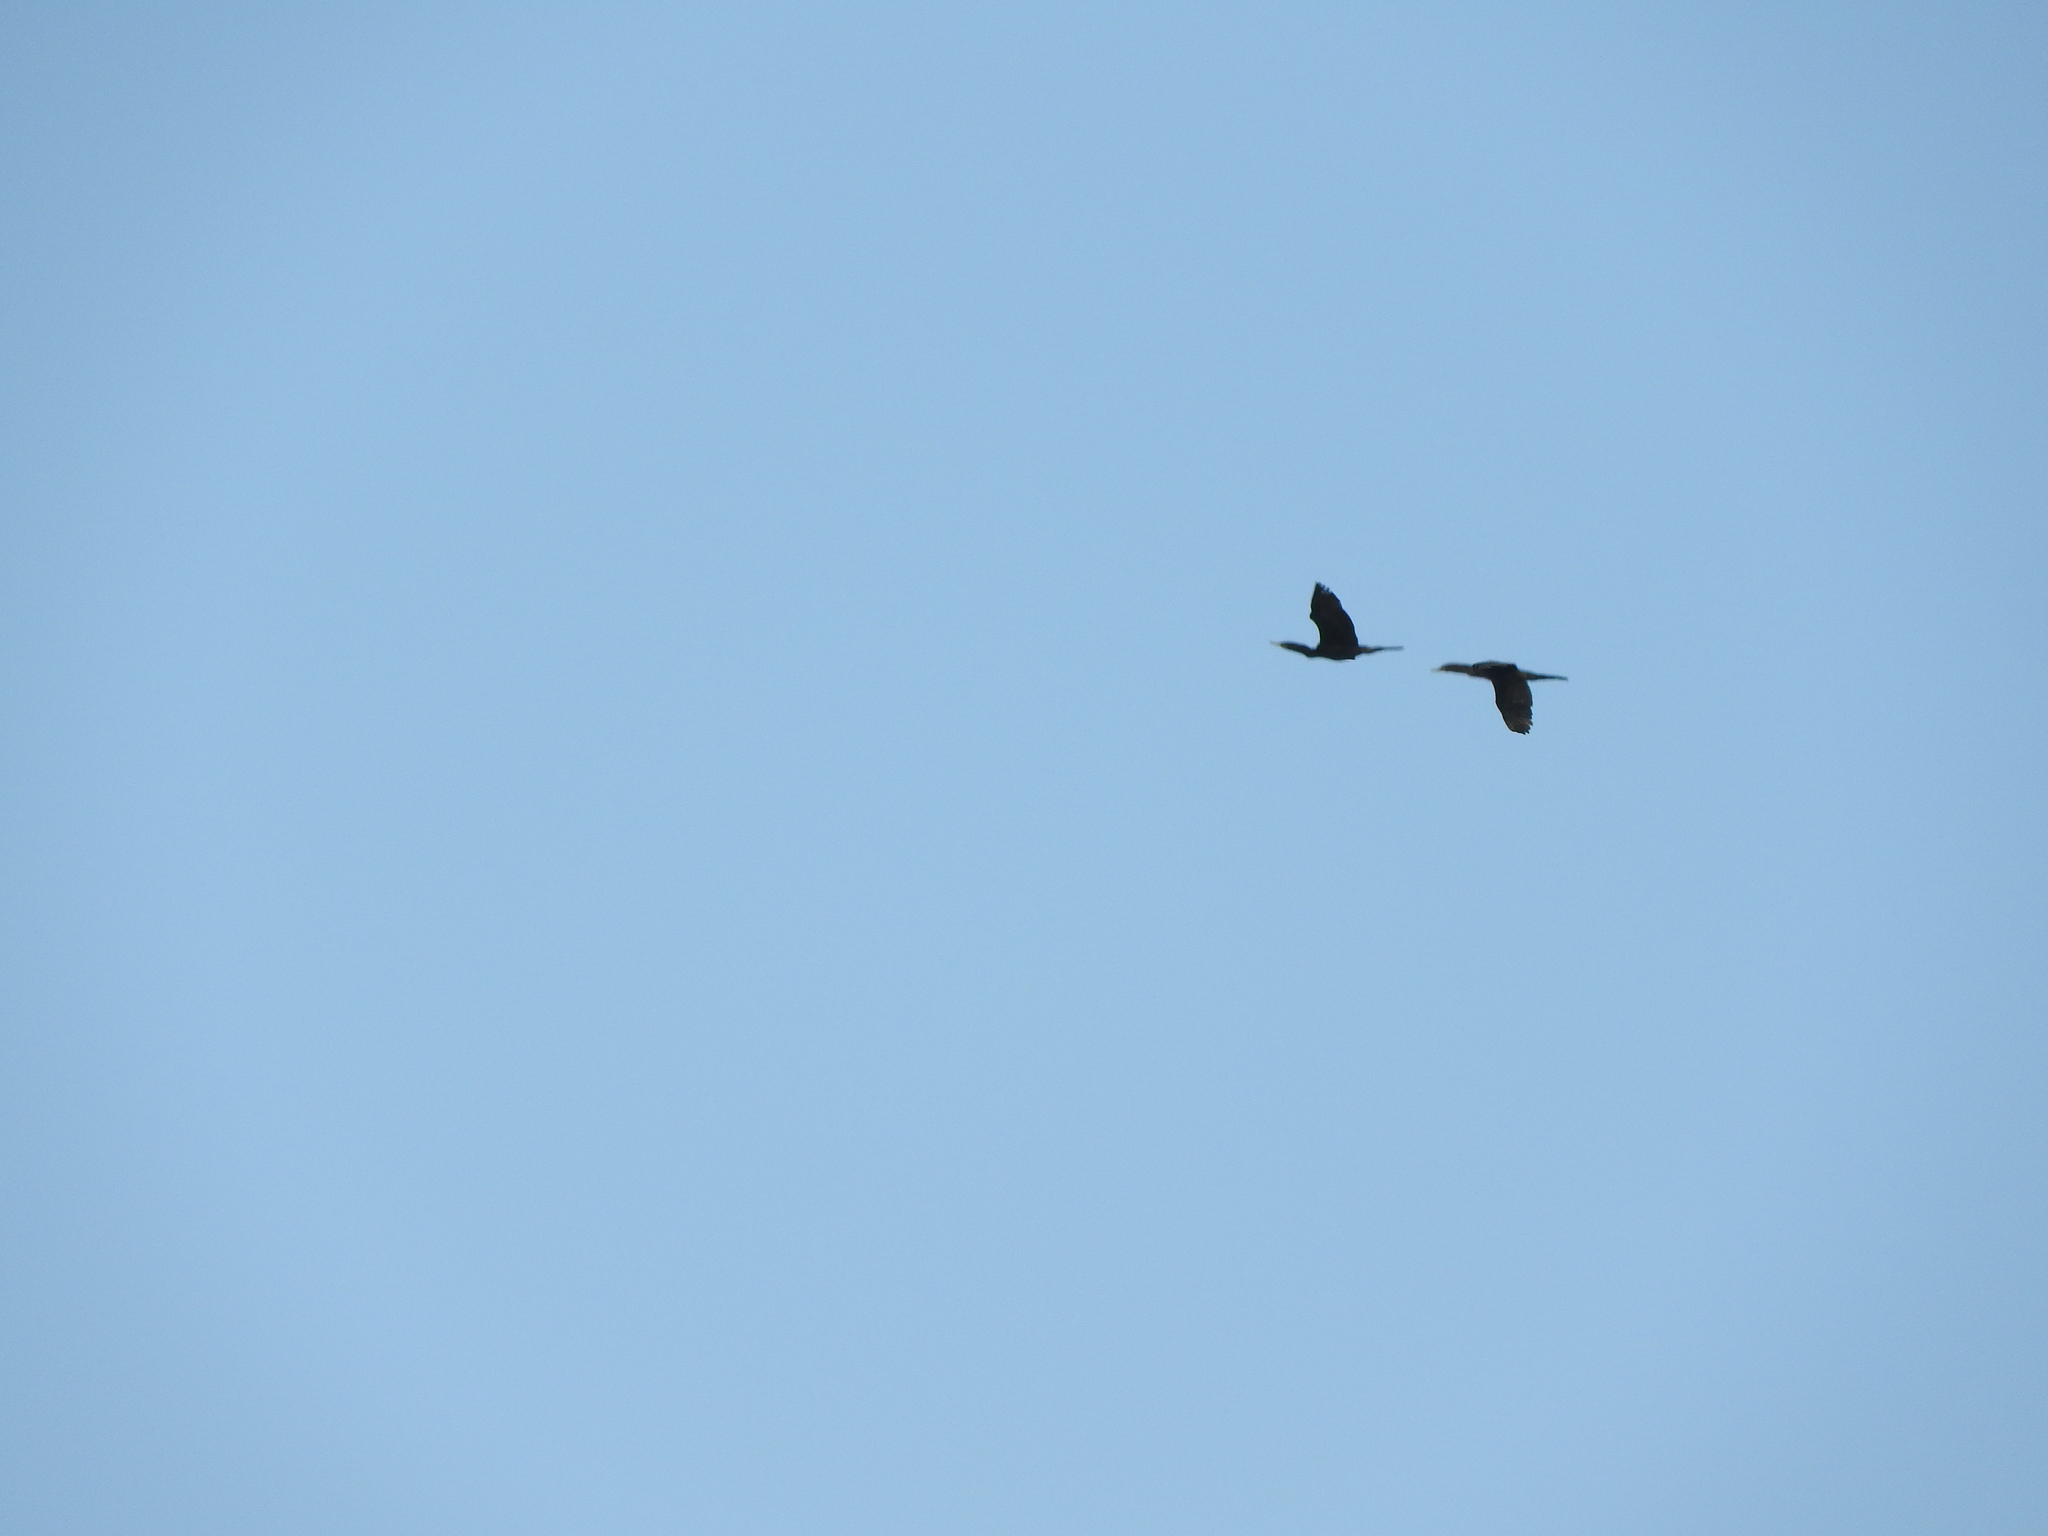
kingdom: Animalia
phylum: Chordata
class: Aves
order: Suliformes
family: Phalacrocoracidae
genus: Phalacrocorax
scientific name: Phalacrocorax brasilianus
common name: Neotropic cormorant
